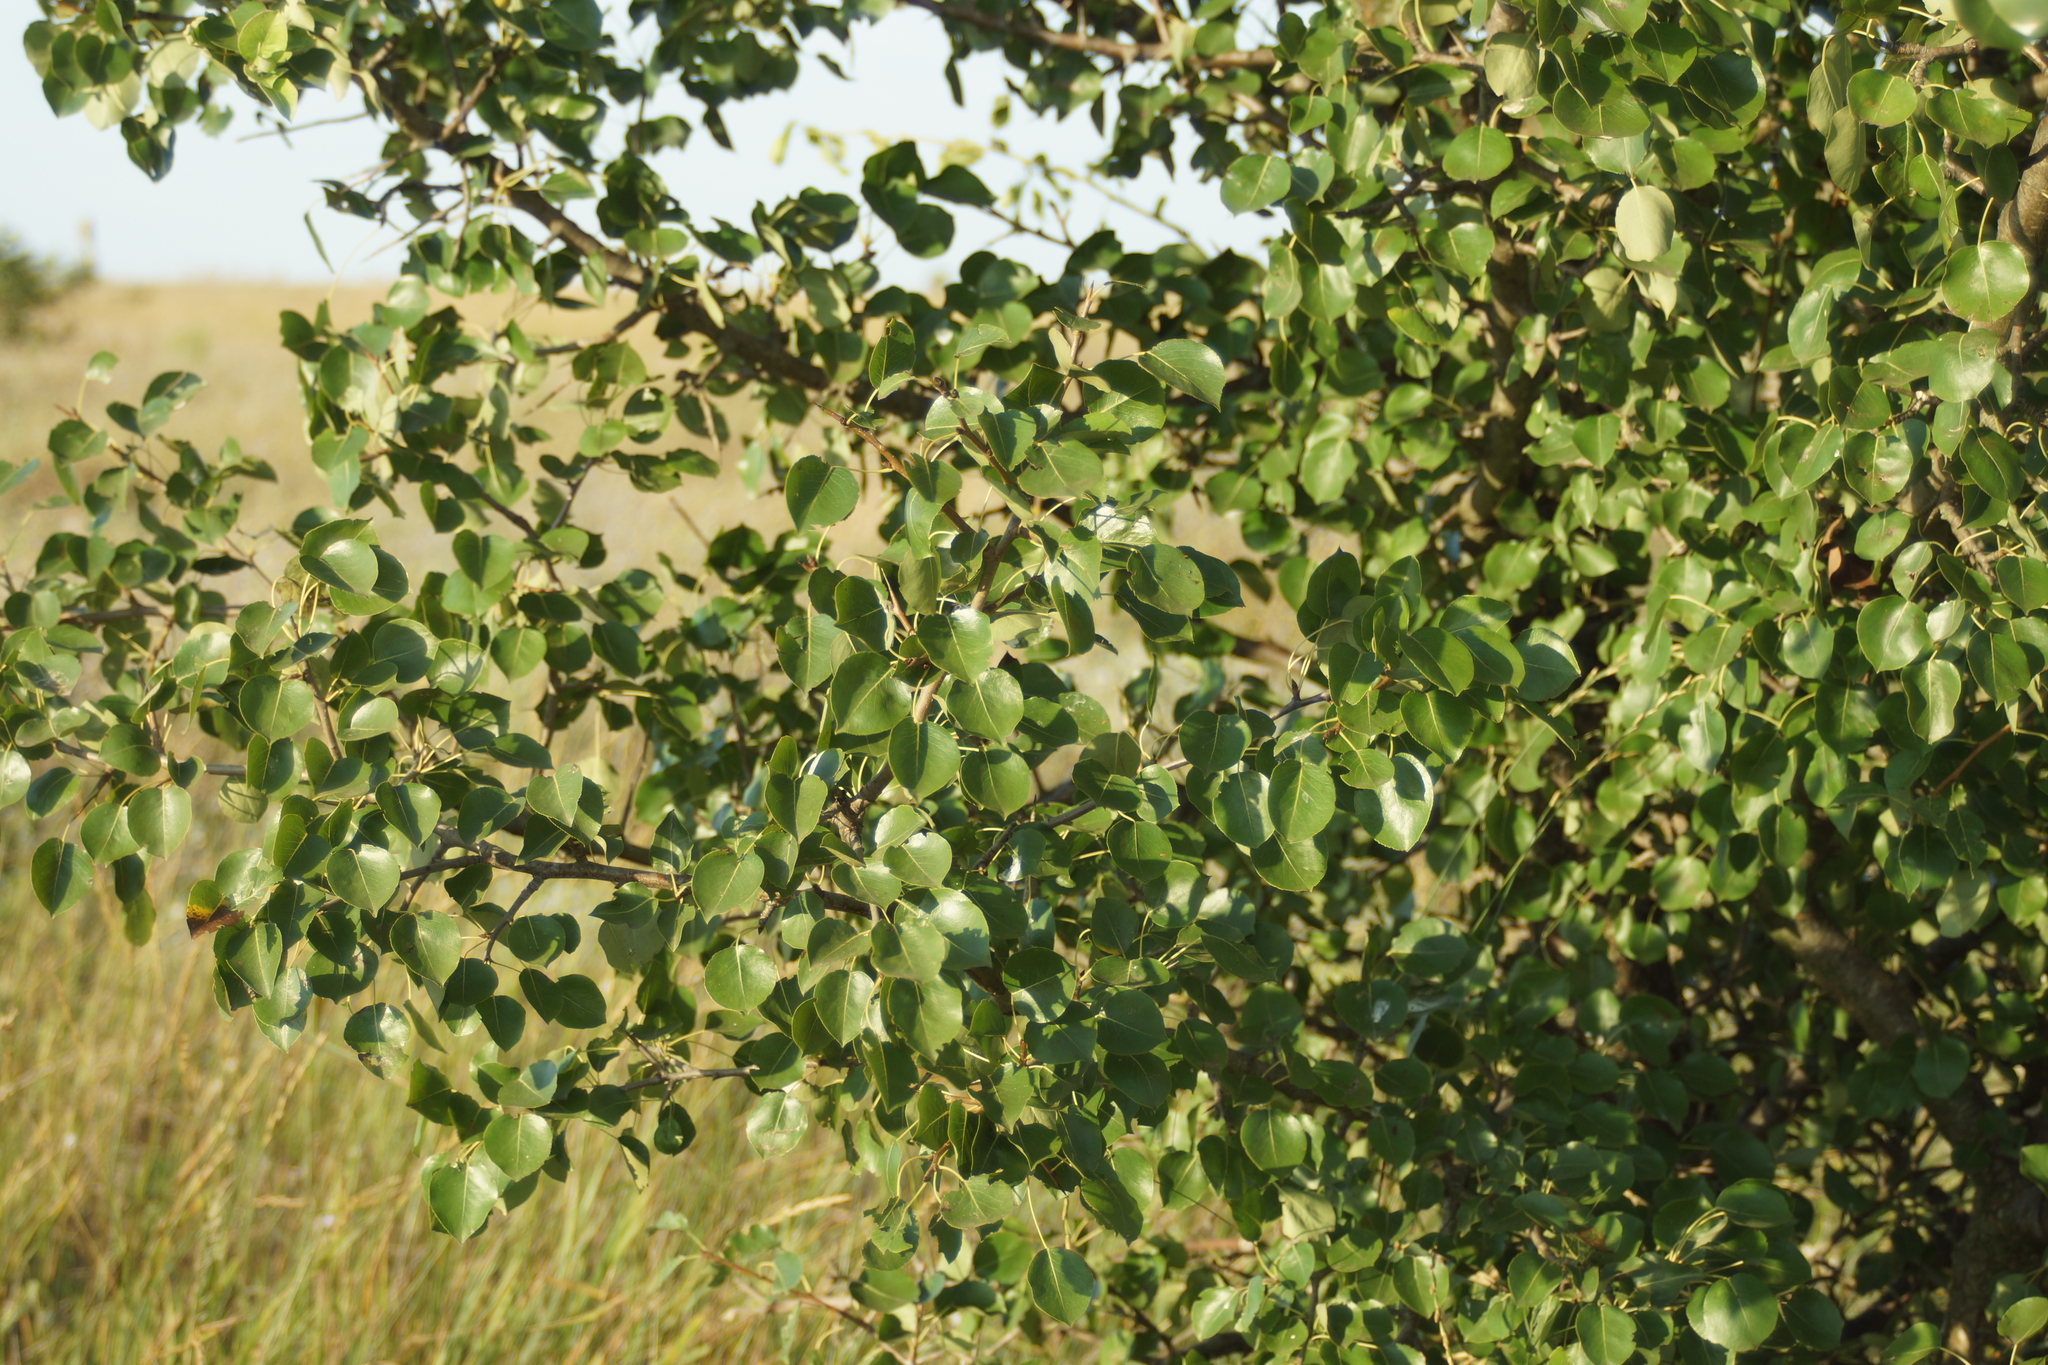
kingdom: Plantae
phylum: Tracheophyta
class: Magnoliopsida
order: Rosales
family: Rosaceae
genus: Pyrus
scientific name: Pyrus communis
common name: Pear
